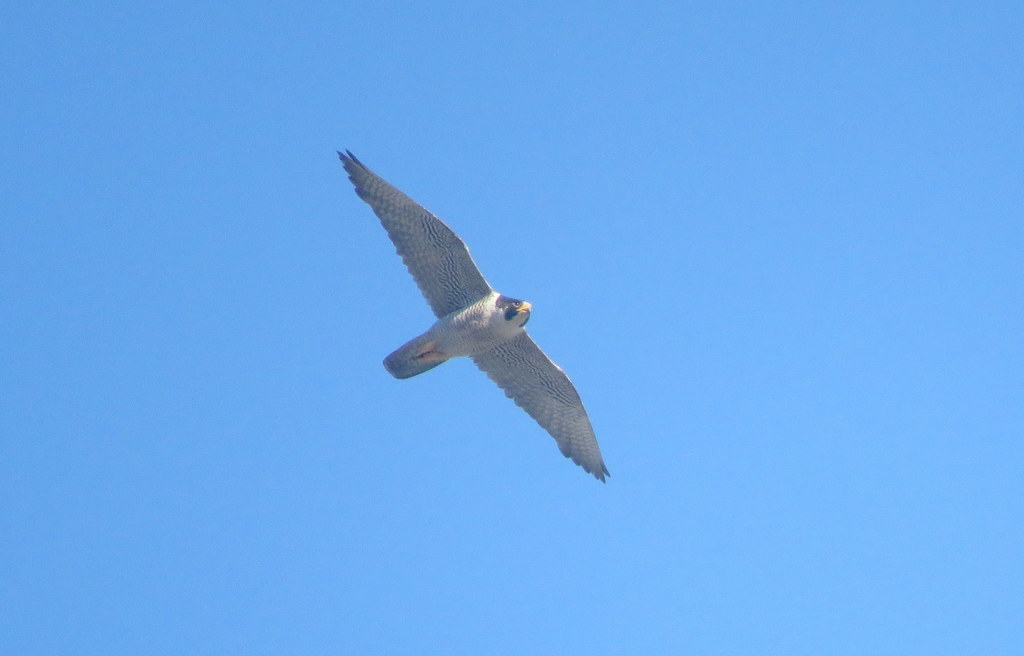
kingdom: Animalia
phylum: Chordata
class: Aves
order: Falconiformes
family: Falconidae
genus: Falco
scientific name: Falco peregrinus
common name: Peregrine falcon
